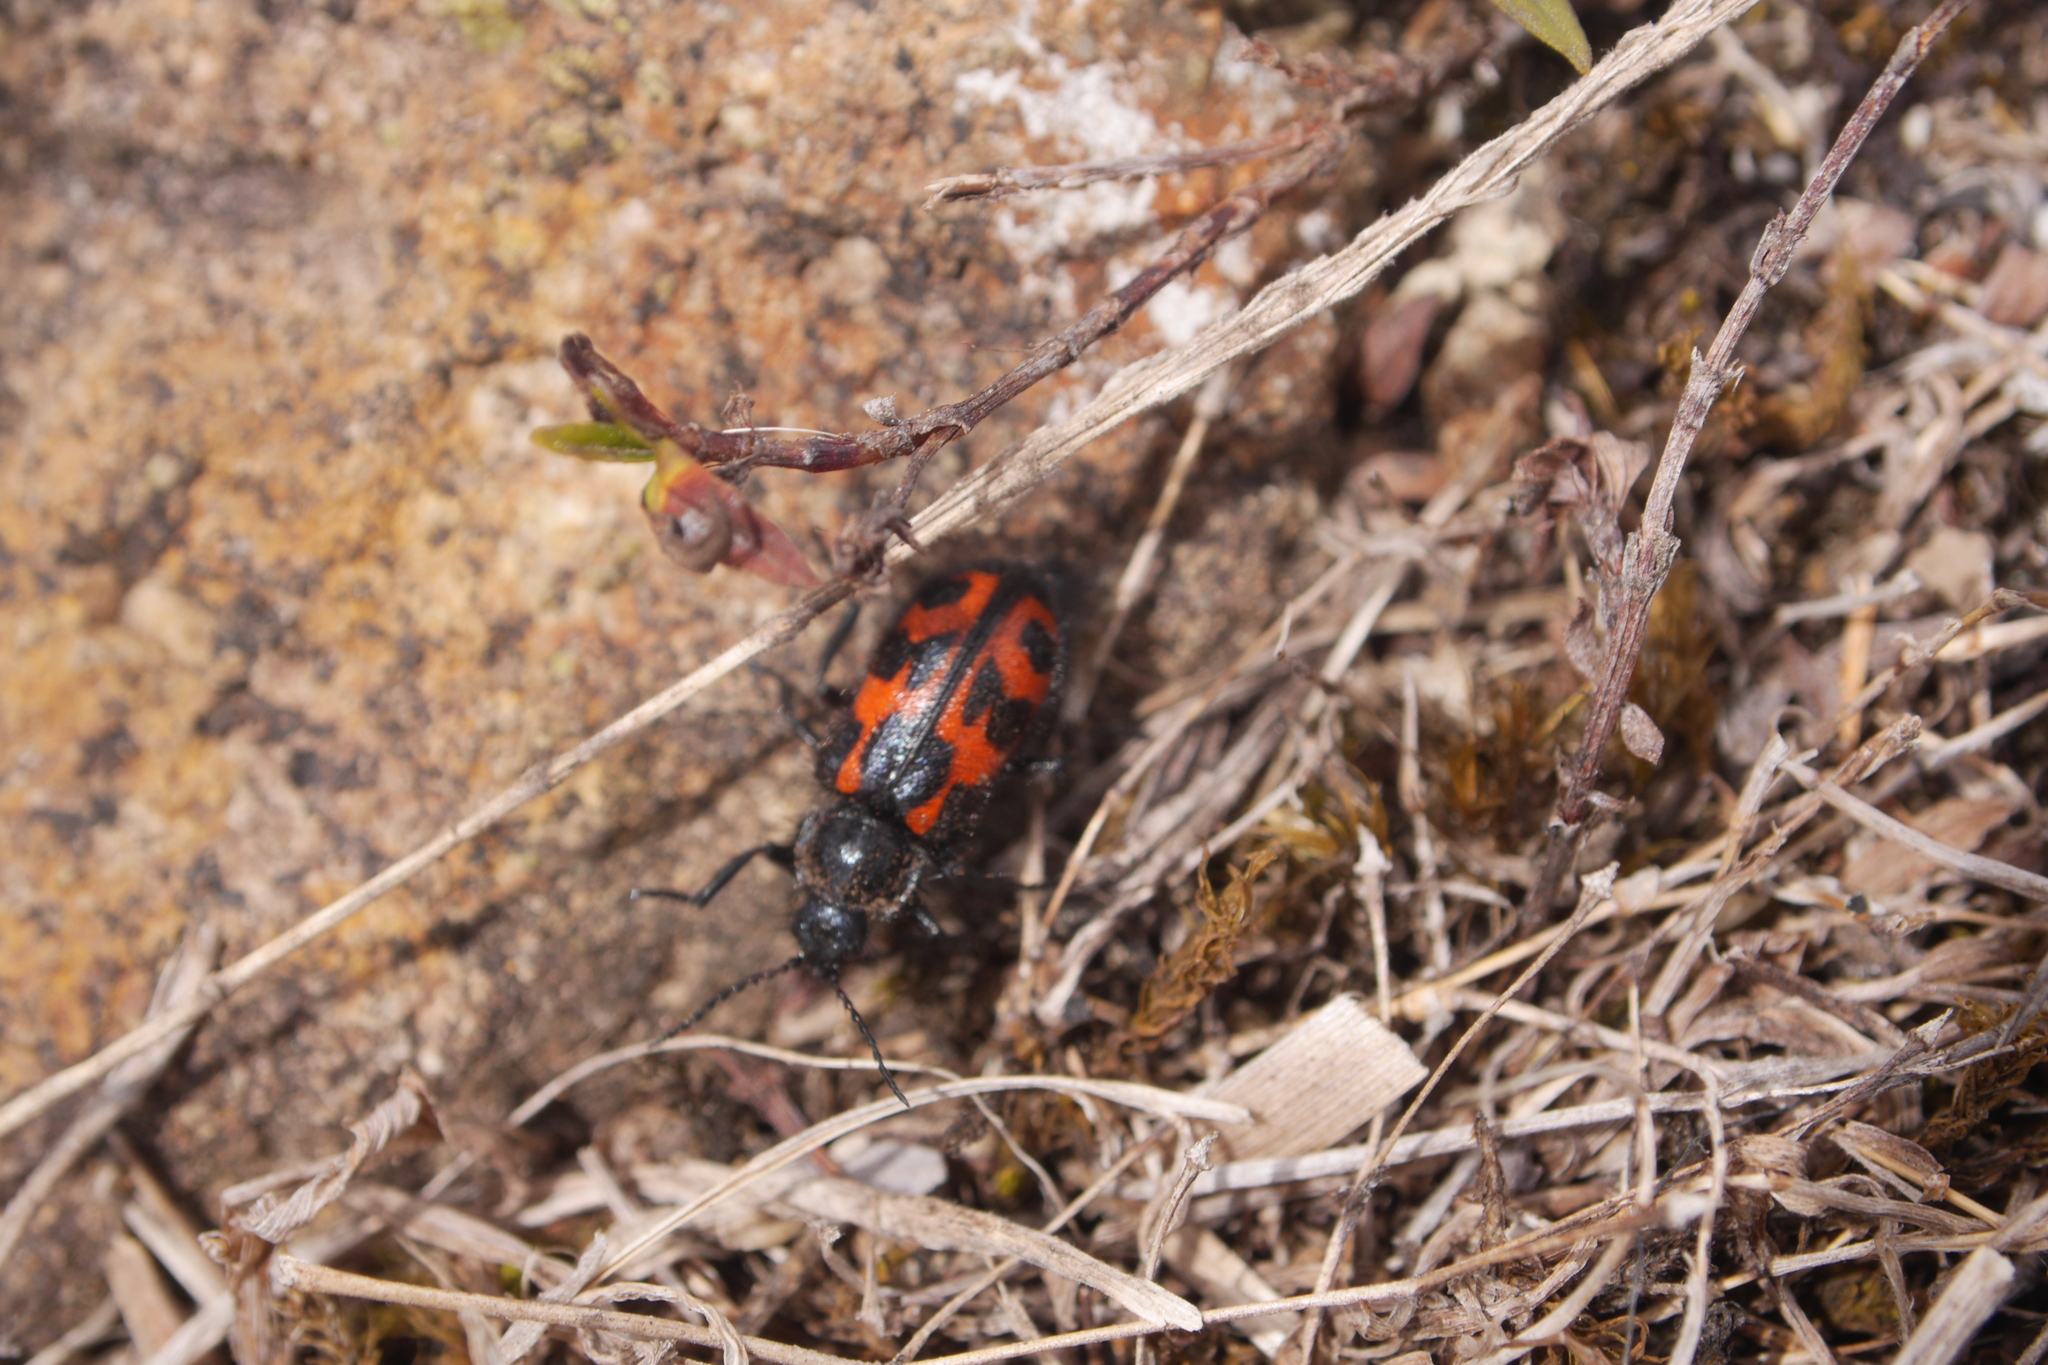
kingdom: Animalia
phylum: Arthropoda
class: Insecta
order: Coleoptera
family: Melyridae
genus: Astylus
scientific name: Astylus
